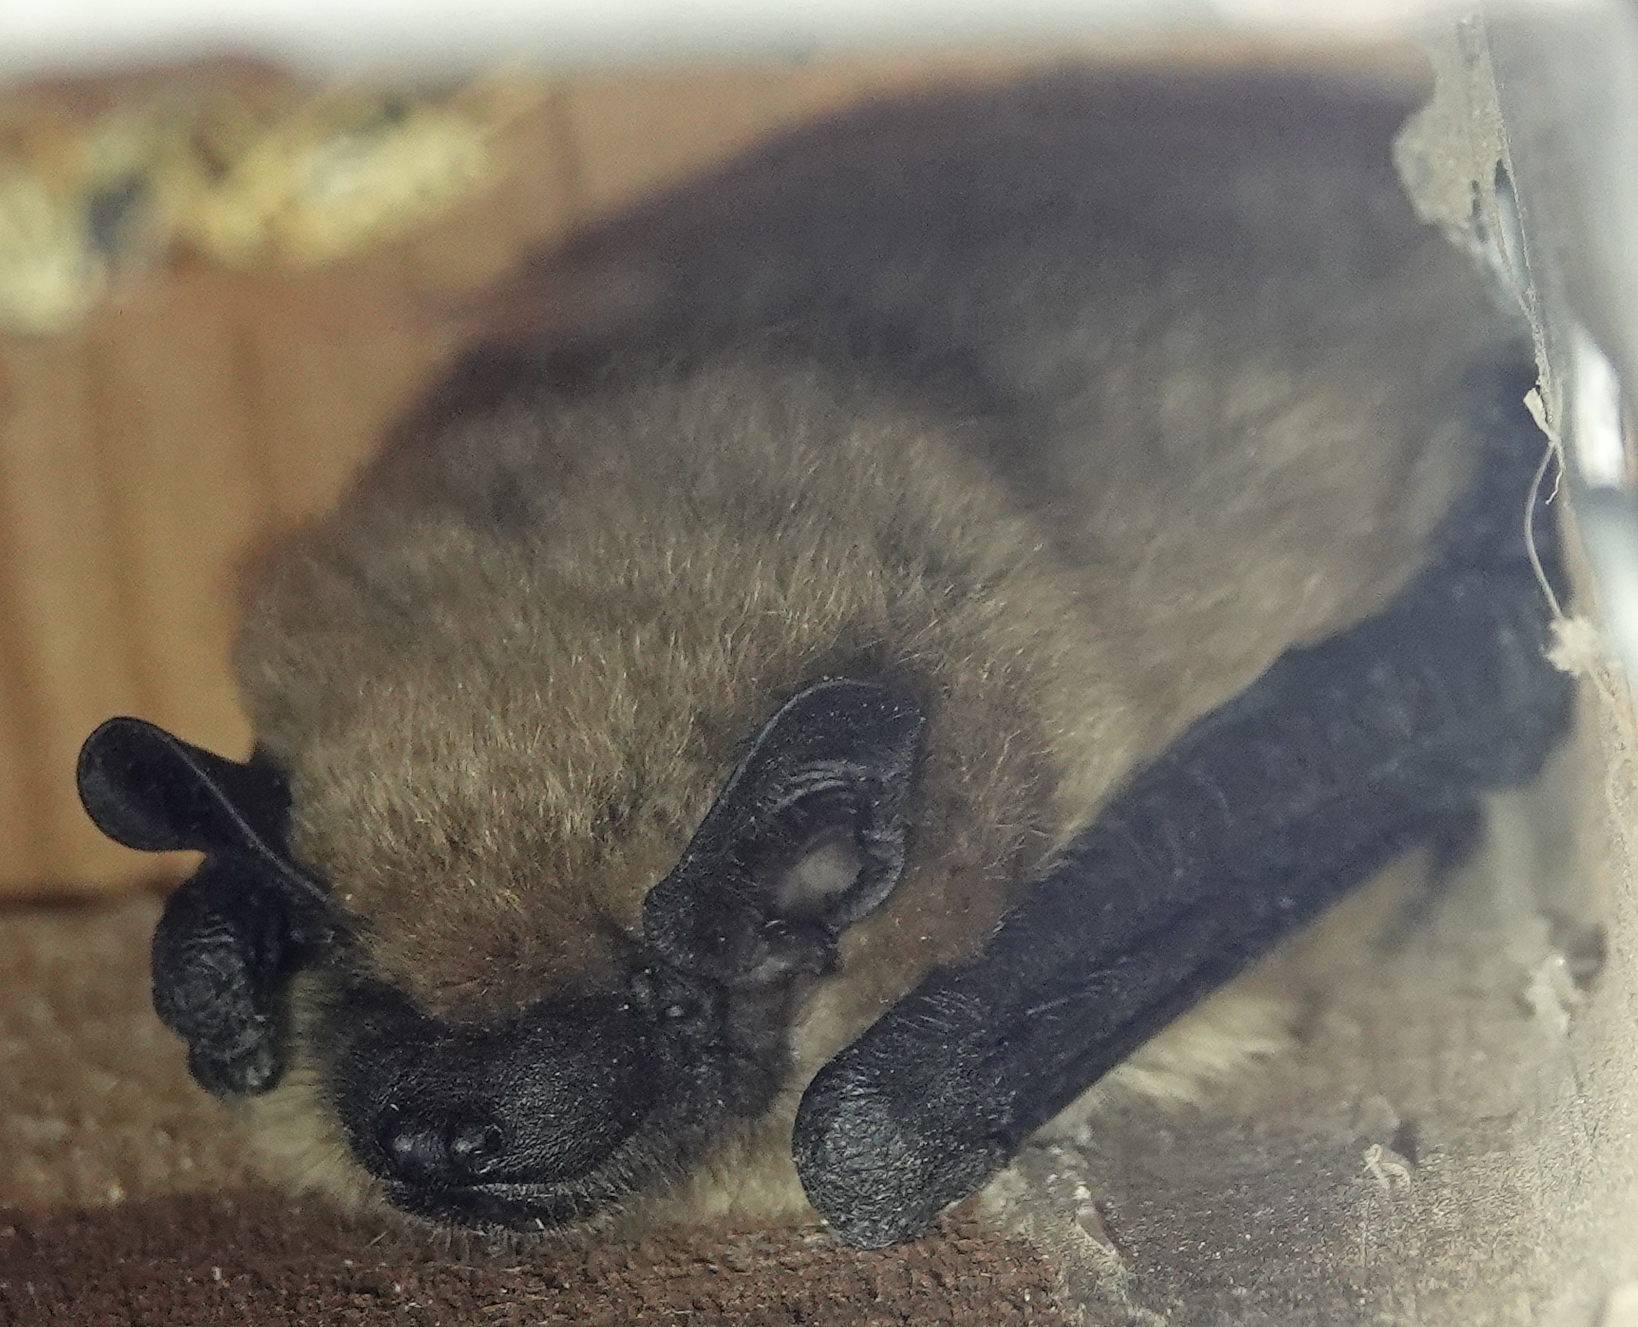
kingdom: Animalia
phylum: Chordata
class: Mammalia
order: Chiroptera
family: Vespertilionidae
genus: Eptesicus
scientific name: Eptesicus fuscus
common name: Big brown bat
